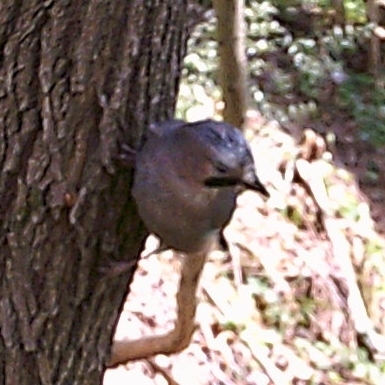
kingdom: Animalia
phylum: Chordata
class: Aves
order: Passeriformes
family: Corvidae
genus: Garrulus
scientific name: Garrulus glandarius
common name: Eurasian jay
